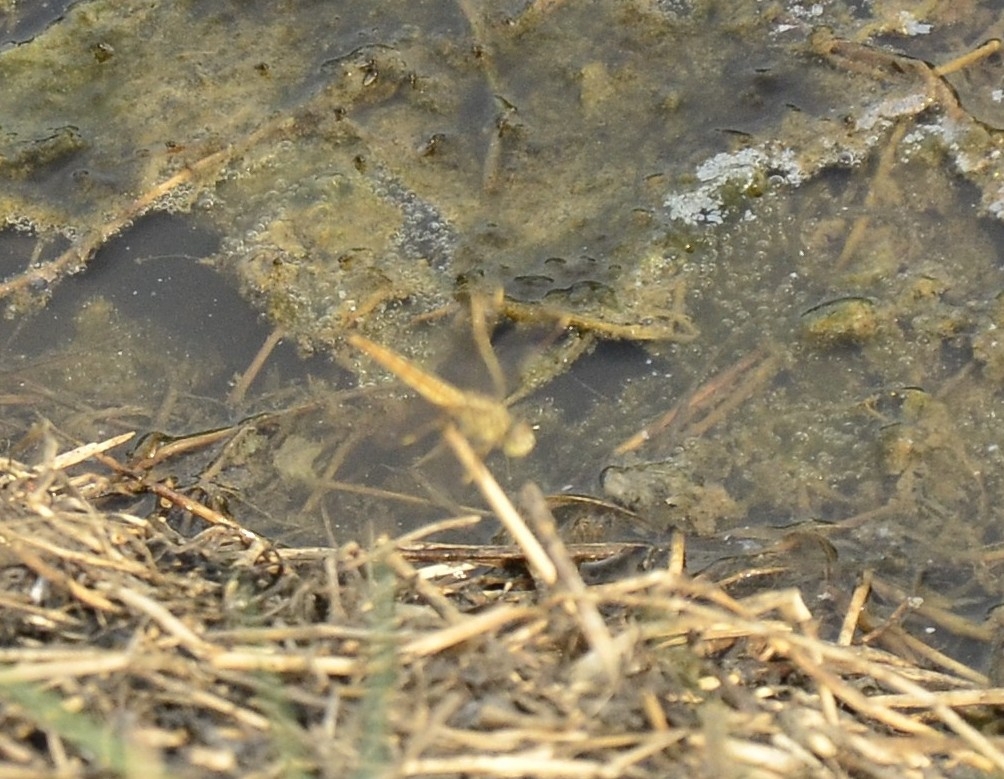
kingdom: Animalia
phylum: Arthropoda
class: Insecta
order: Odonata
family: Libellulidae
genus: Brachythemis
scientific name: Brachythemis contaminata
